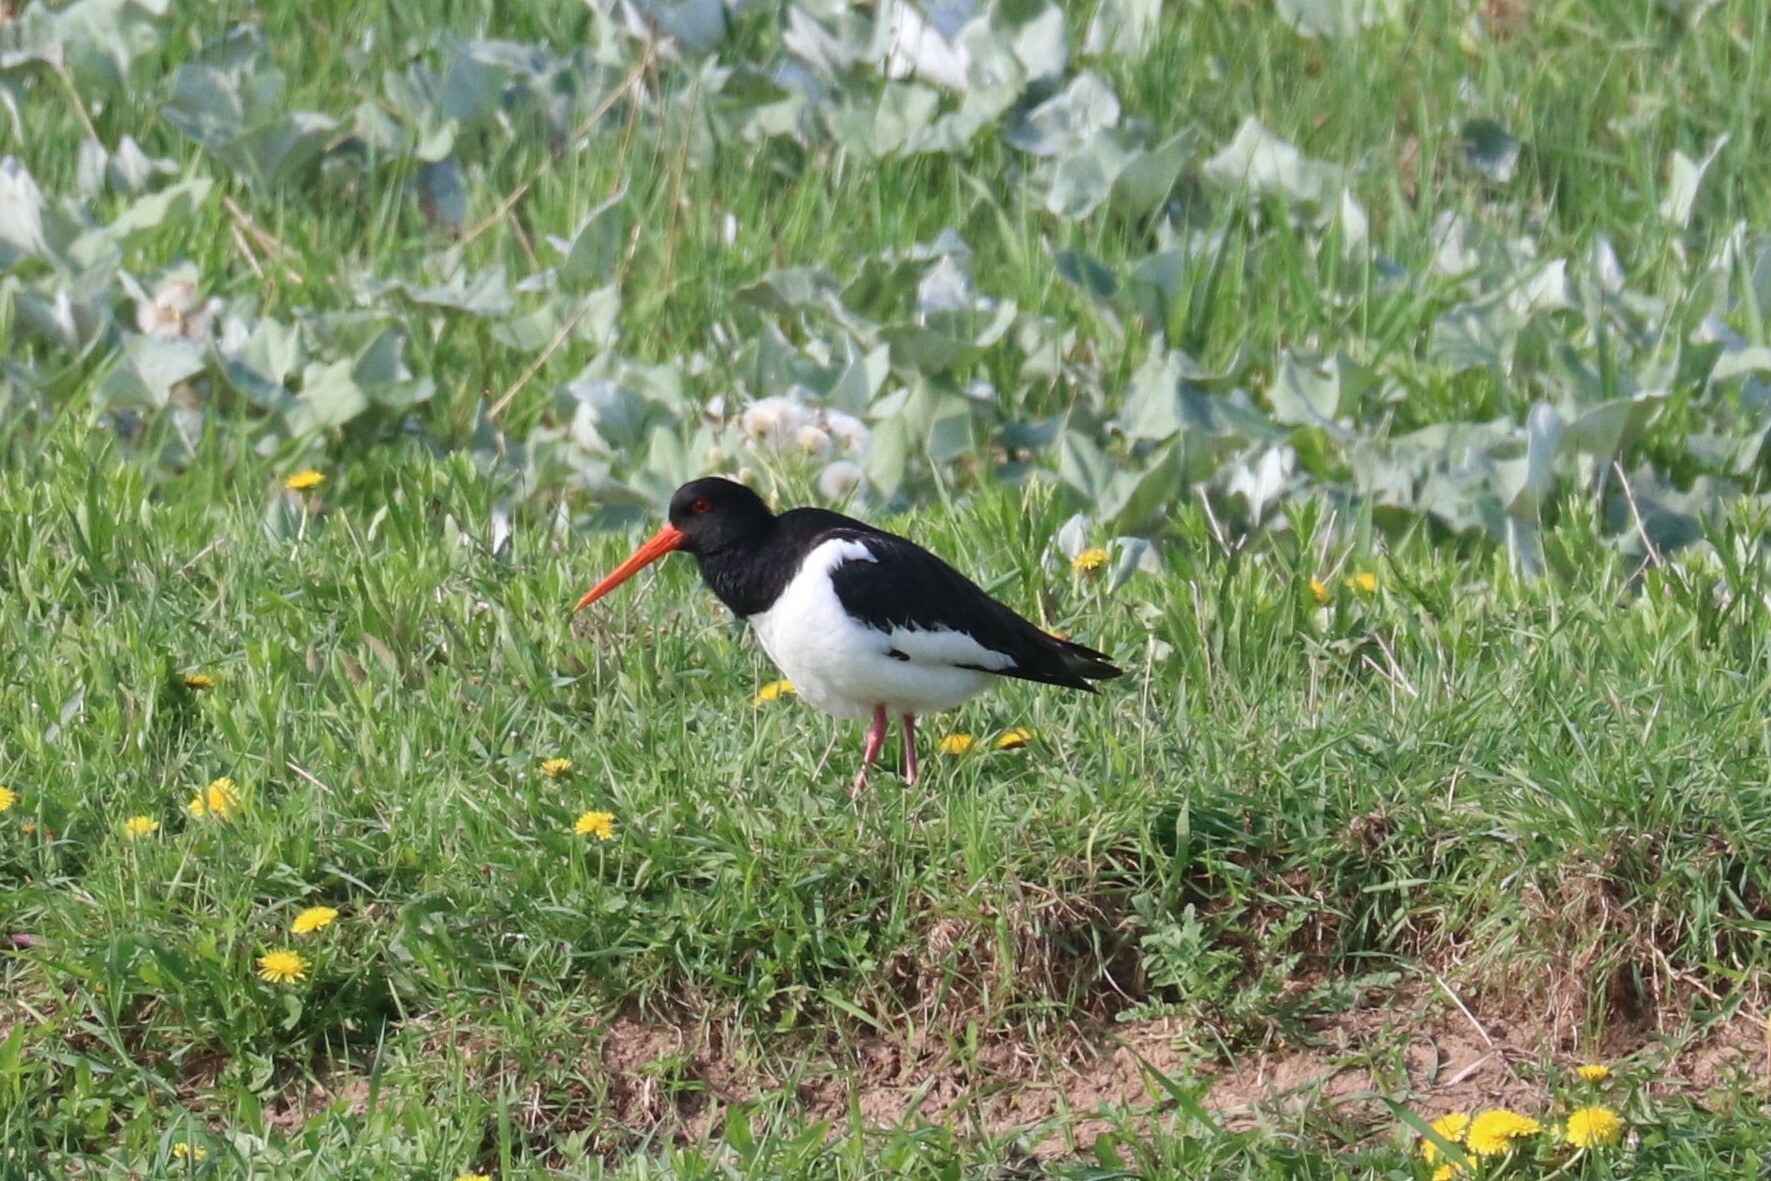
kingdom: Animalia
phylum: Chordata
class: Aves
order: Charadriiformes
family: Haematopodidae
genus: Haematopus
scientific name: Haematopus ostralegus
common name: Eurasian oystercatcher
